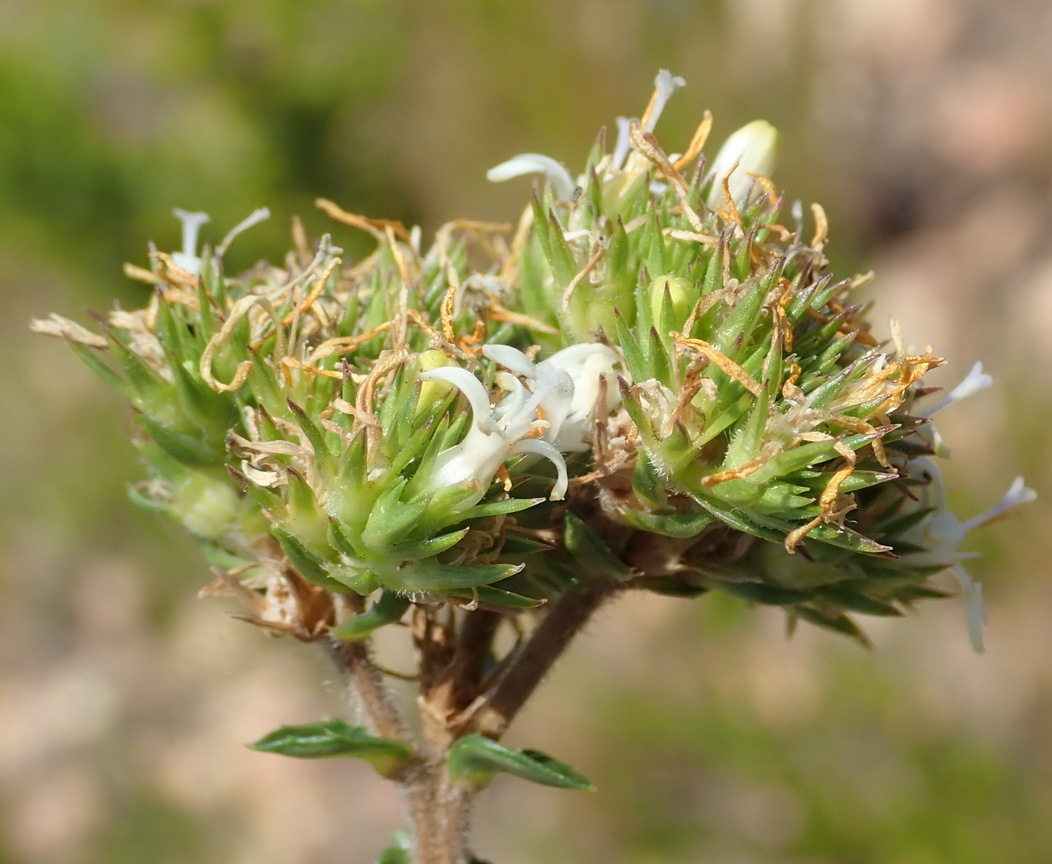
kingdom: Plantae
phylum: Tracheophyta
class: Magnoliopsida
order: Asterales
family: Campanulaceae
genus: Wahlenbergia
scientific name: Wahlenbergia desmantha
